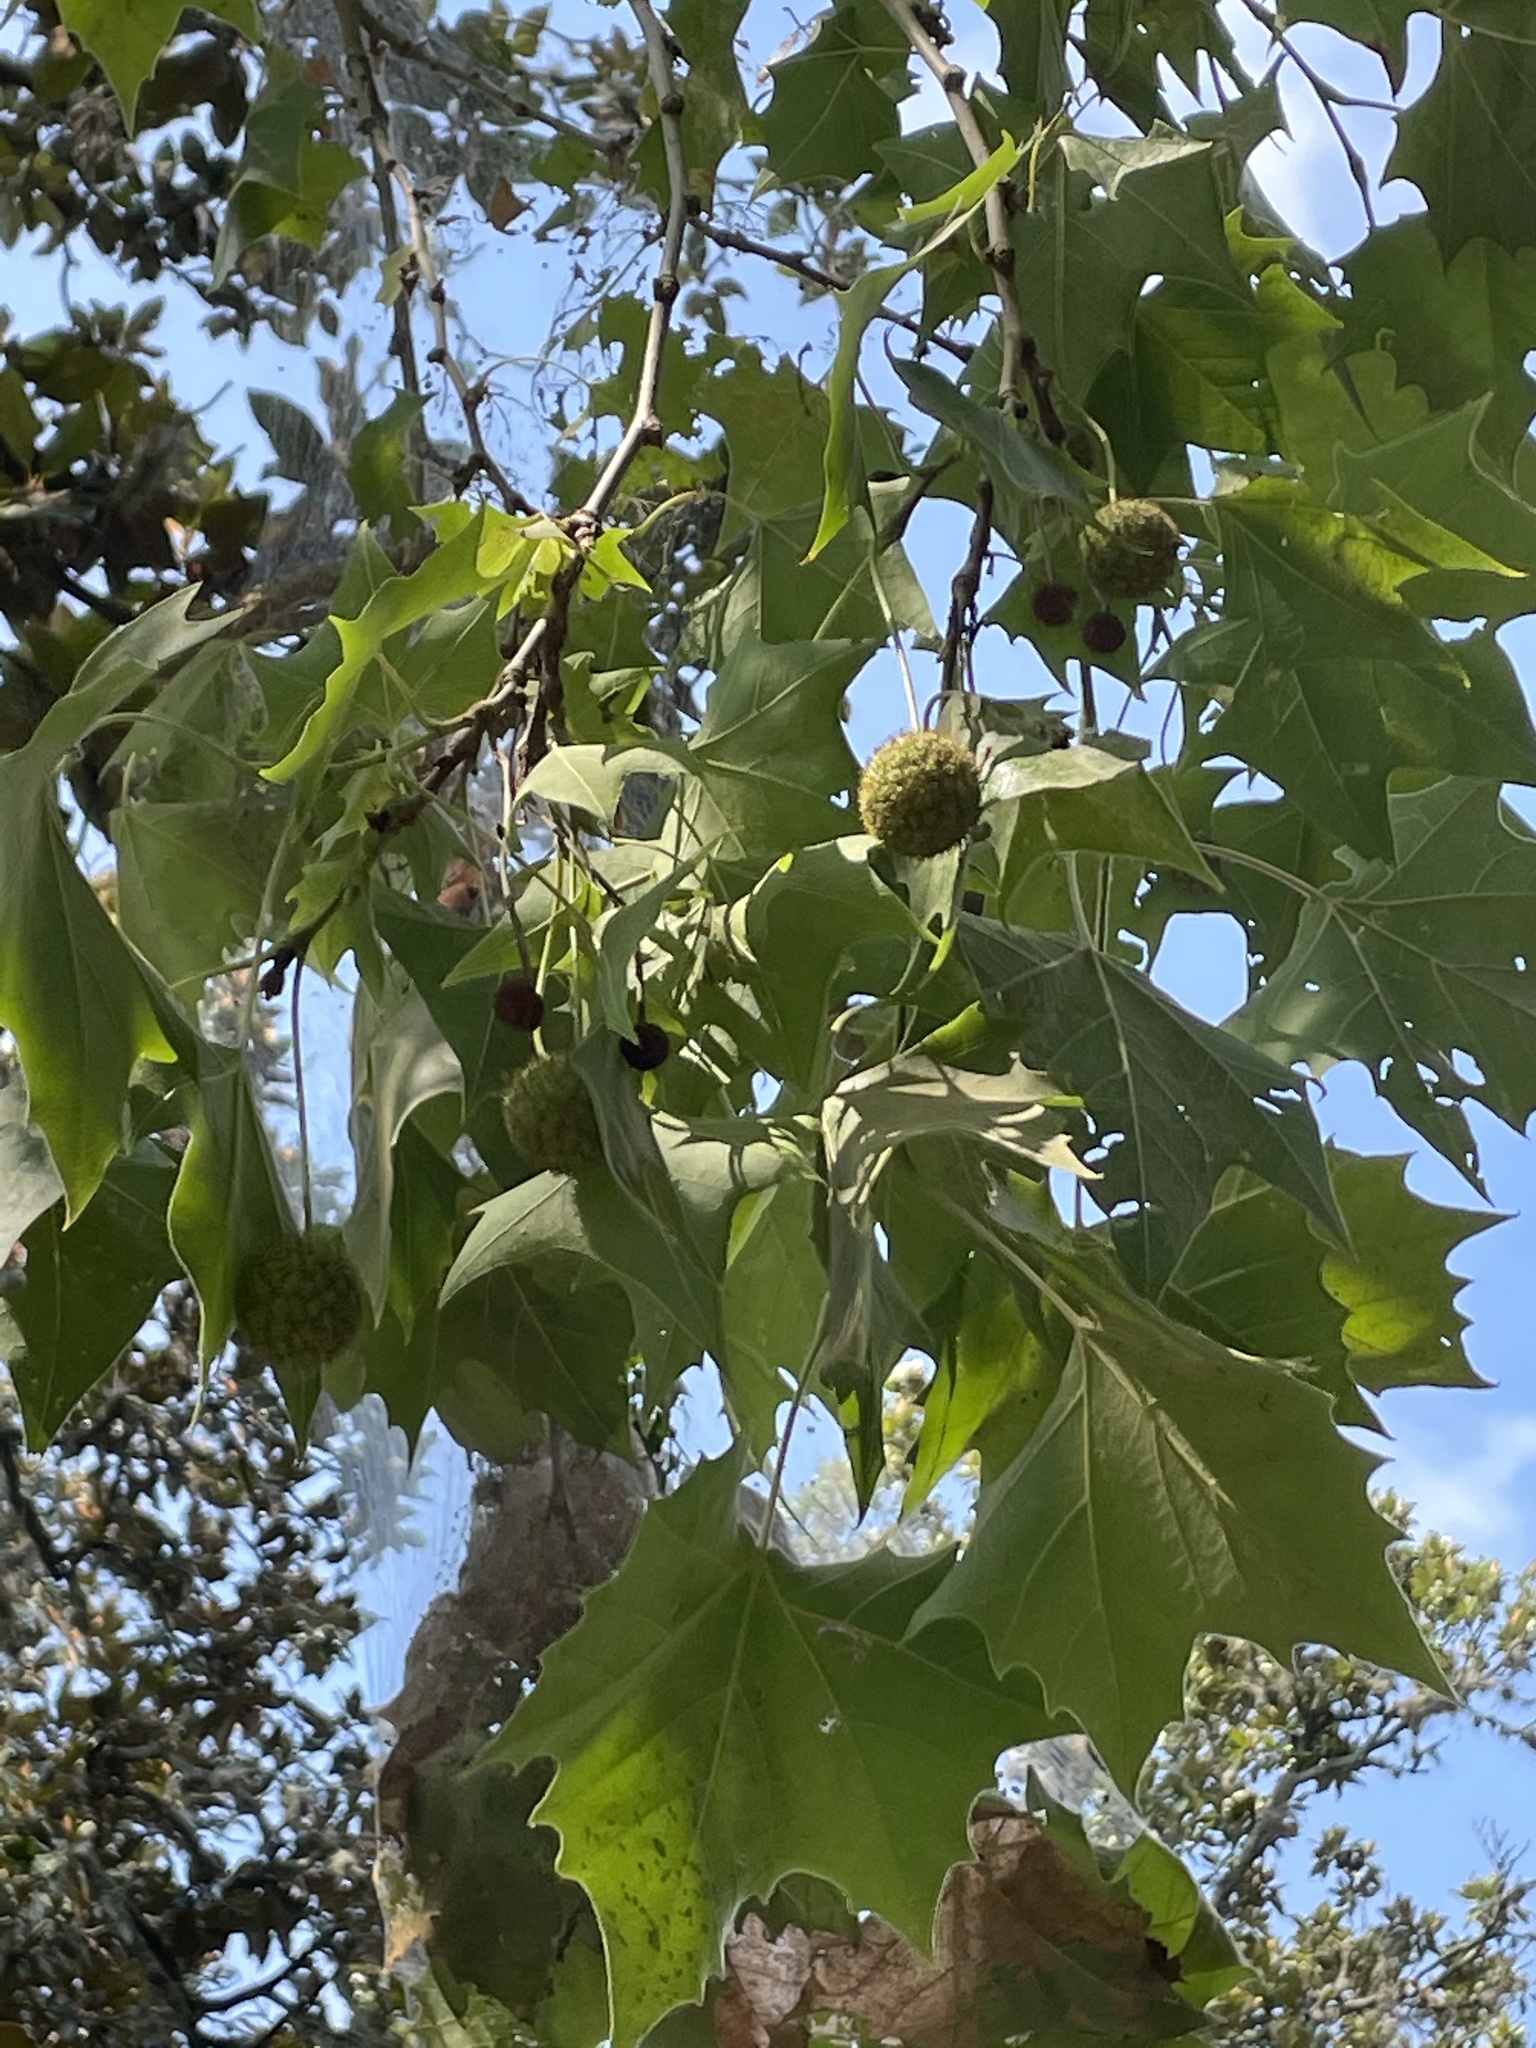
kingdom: Plantae
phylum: Tracheophyta
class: Magnoliopsida
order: Proteales
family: Platanaceae
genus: Platanus
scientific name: Platanus occidentalis
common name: American sycamore
